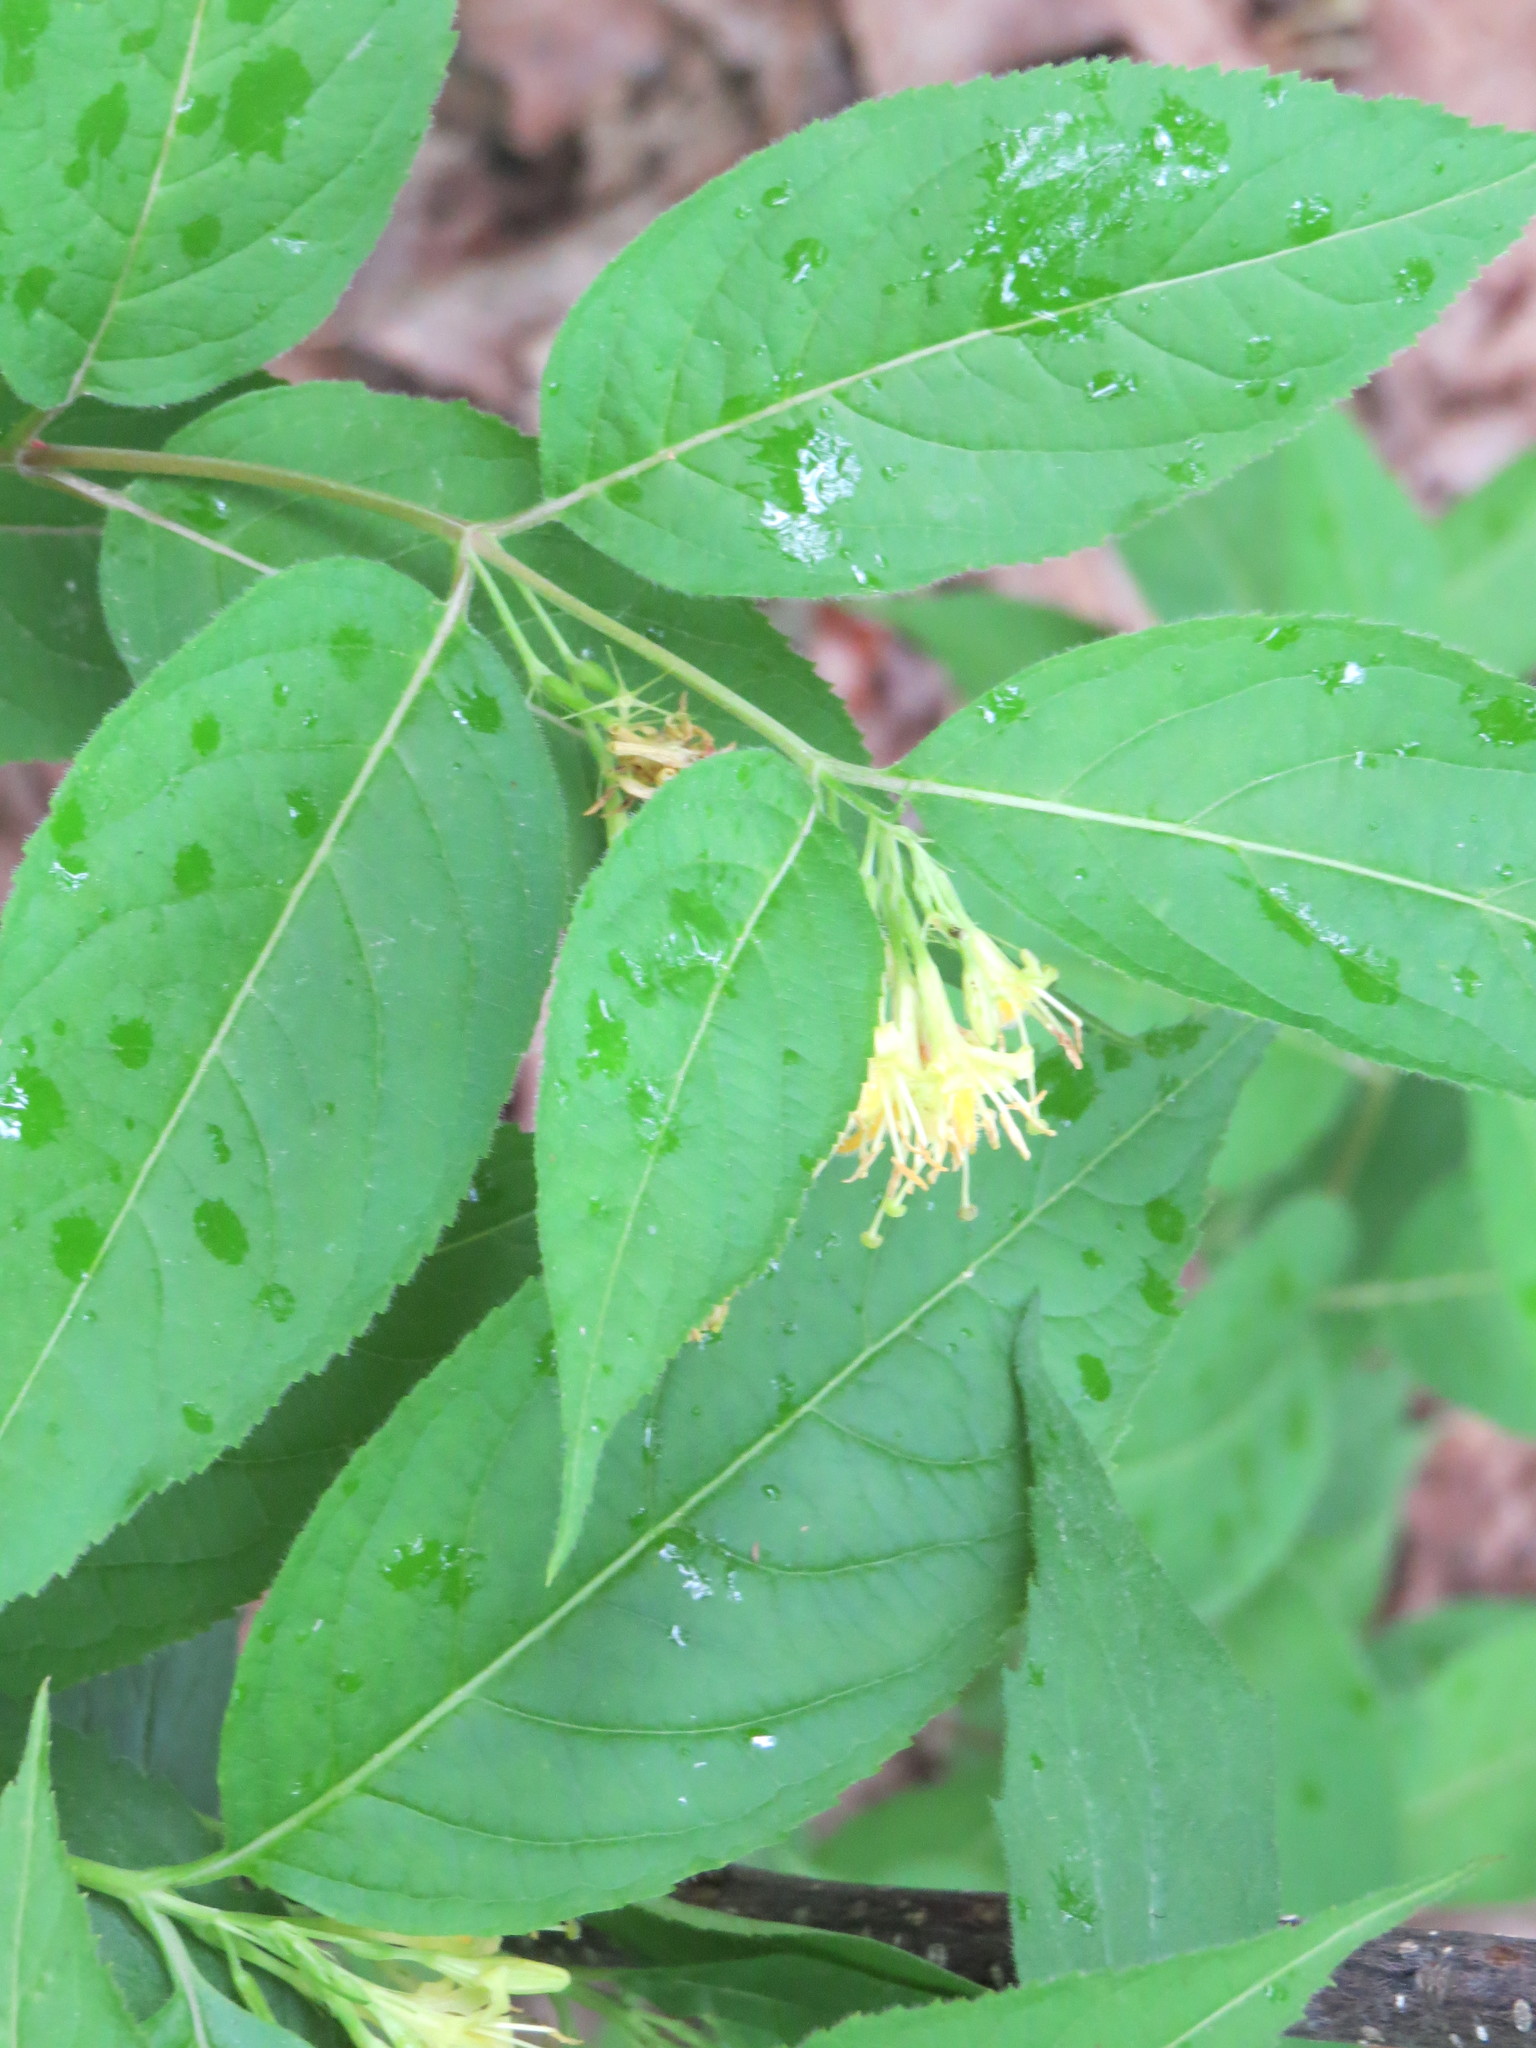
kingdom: Plantae
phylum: Tracheophyta
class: Magnoliopsida
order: Dipsacales
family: Caprifoliaceae
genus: Diervilla
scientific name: Diervilla lonicera
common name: Bush-honeysuckle
